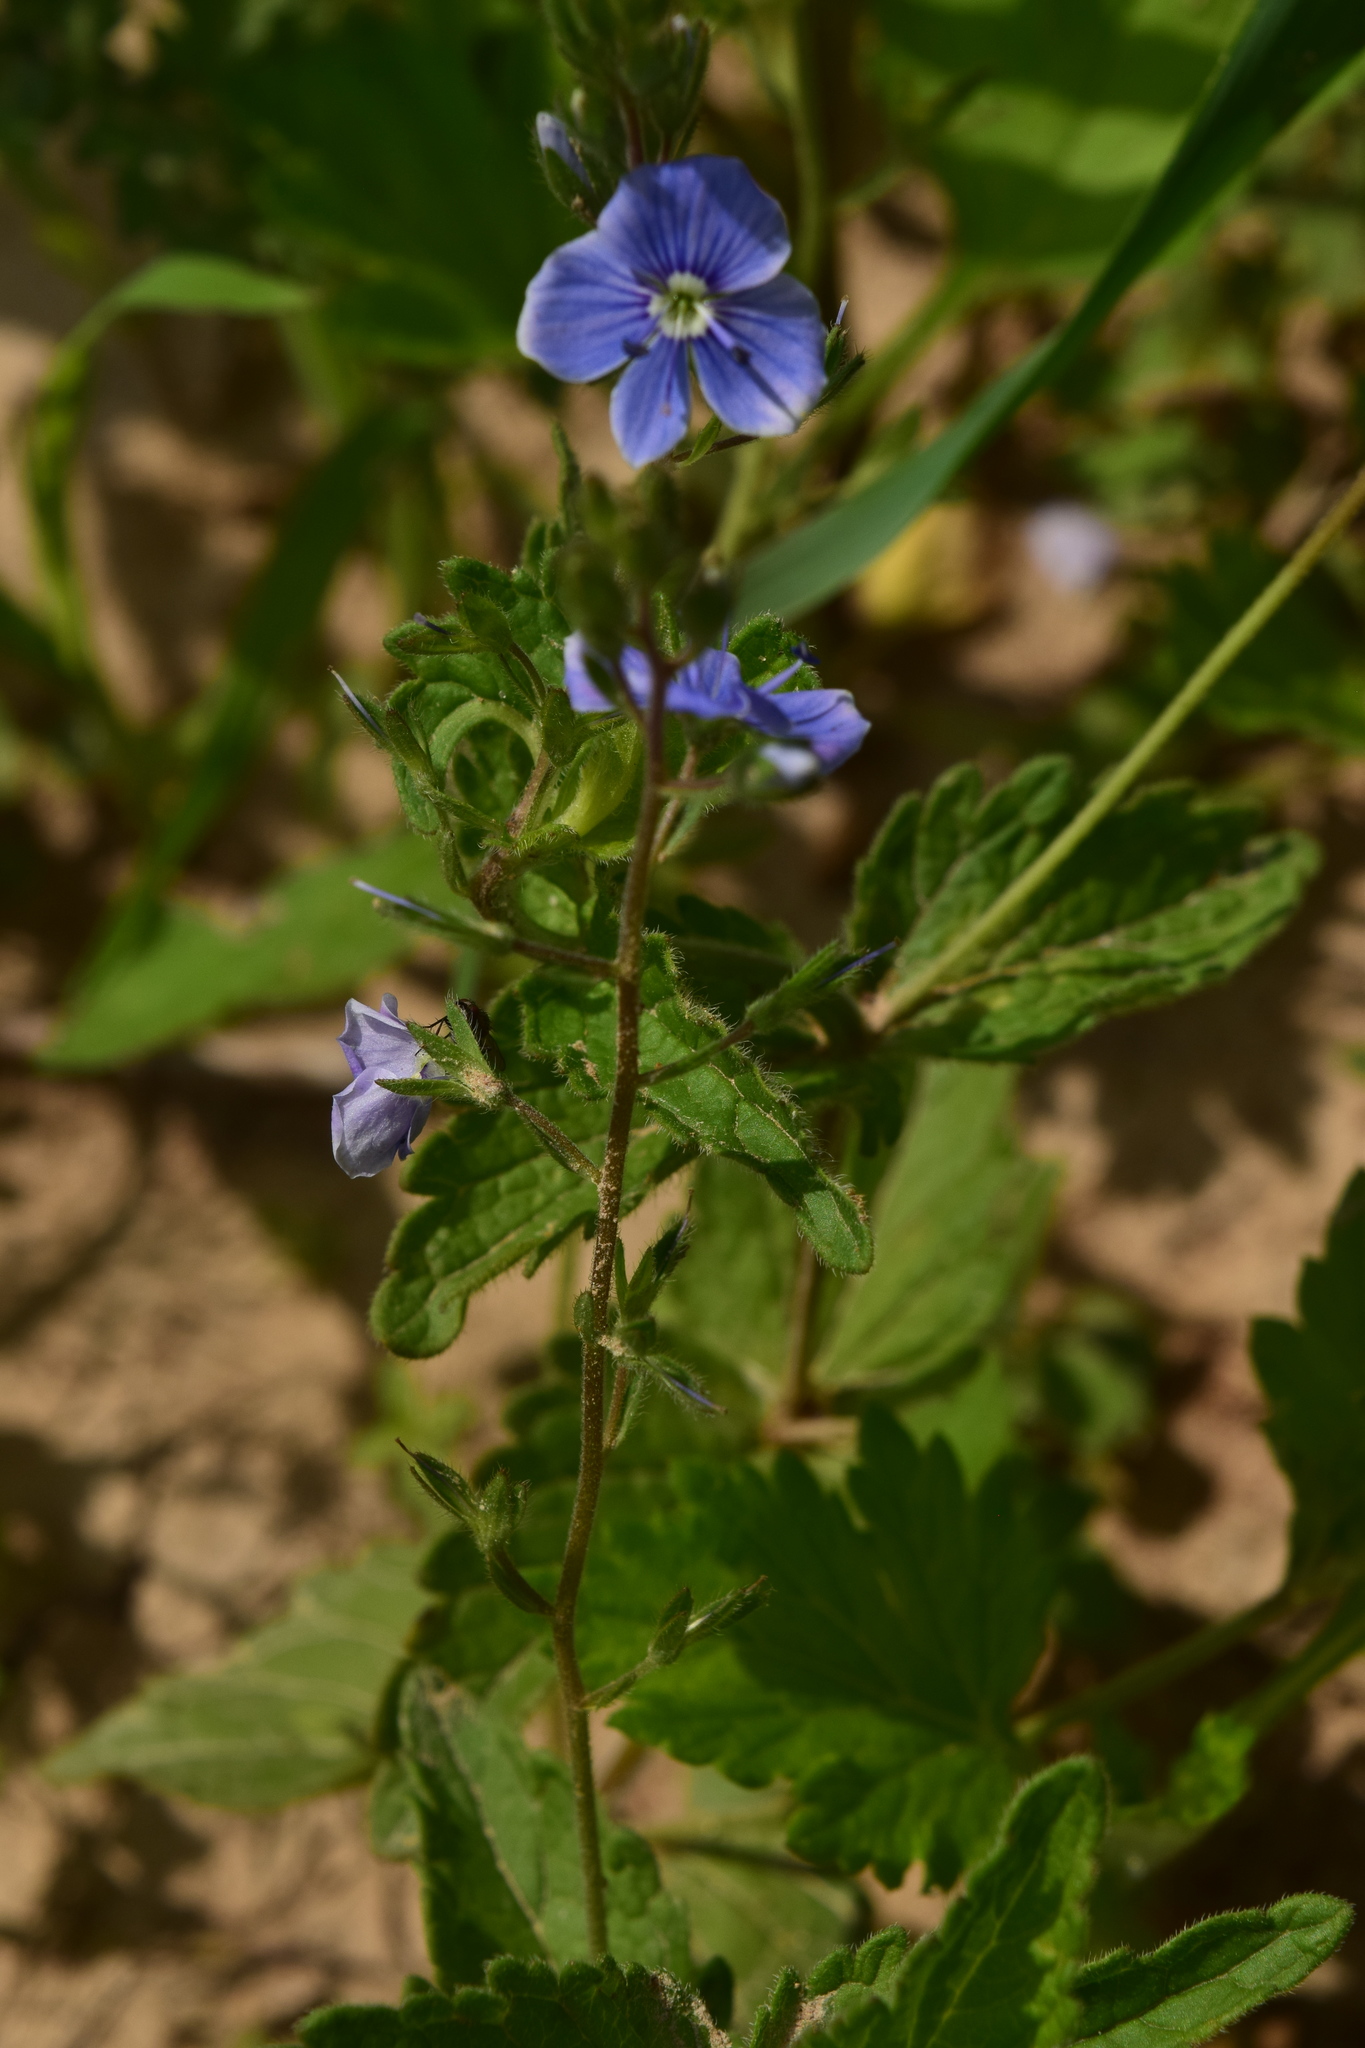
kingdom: Plantae
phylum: Tracheophyta
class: Magnoliopsida
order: Lamiales
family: Plantaginaceae
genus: Veronica
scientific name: Veronica chamaedrys
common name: Germander speedwell
